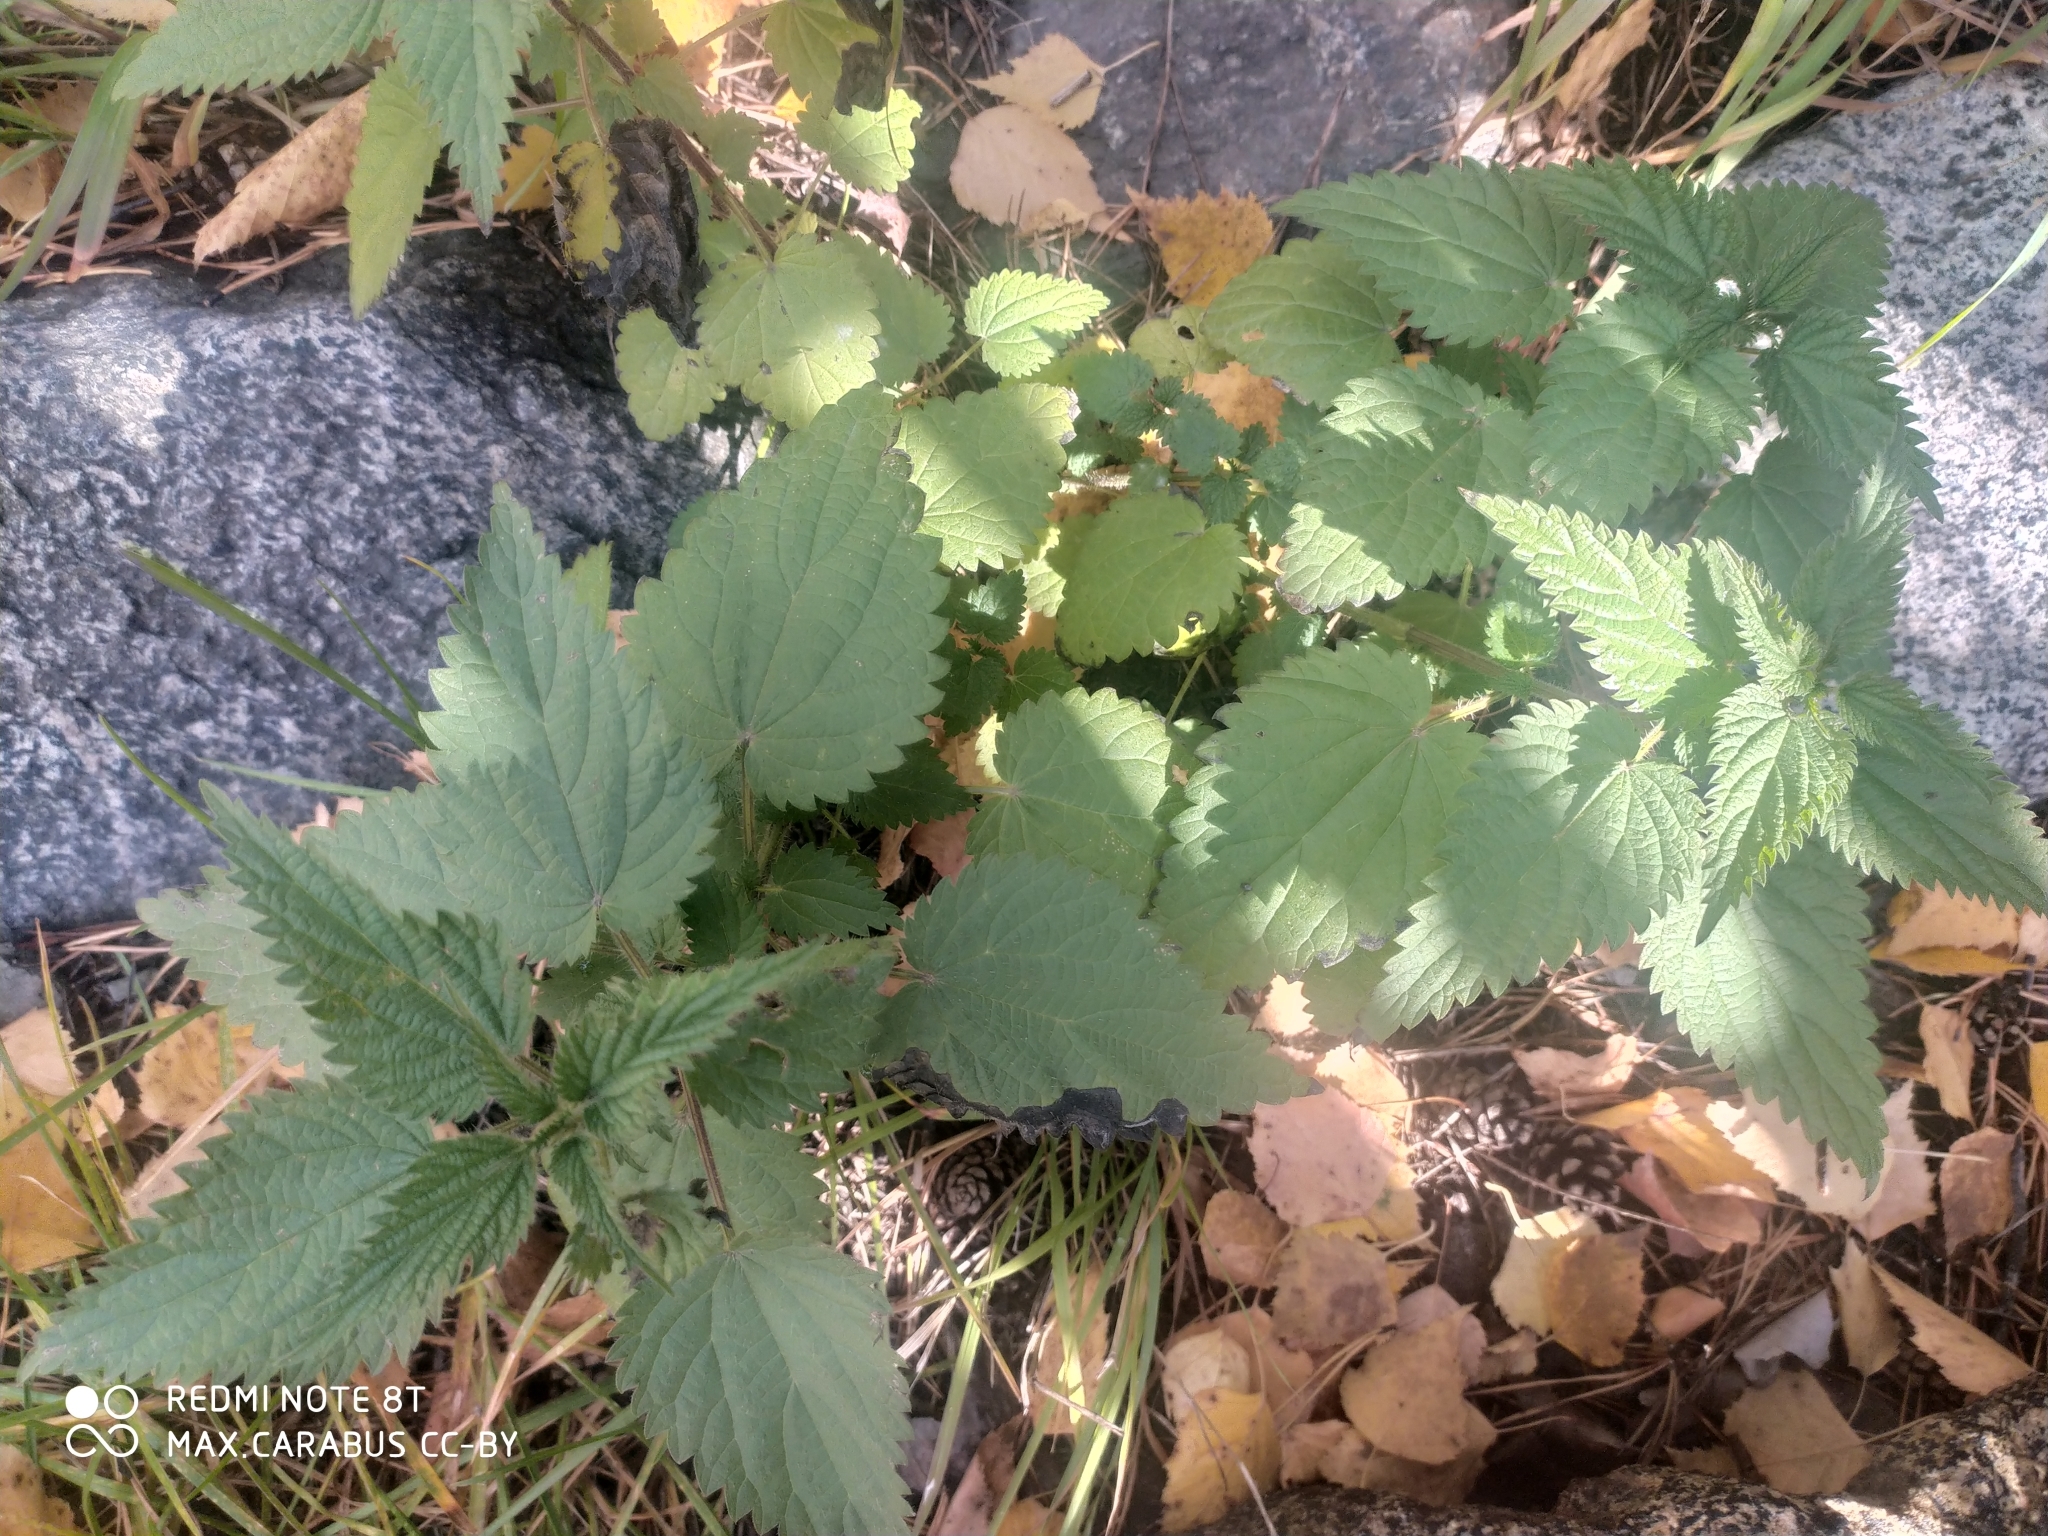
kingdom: Plantae
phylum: Tracheophyta
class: Magnoliopsida
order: Rosales
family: Urticaceae
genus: Urtica
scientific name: Urtica dioica
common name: Common nettle
